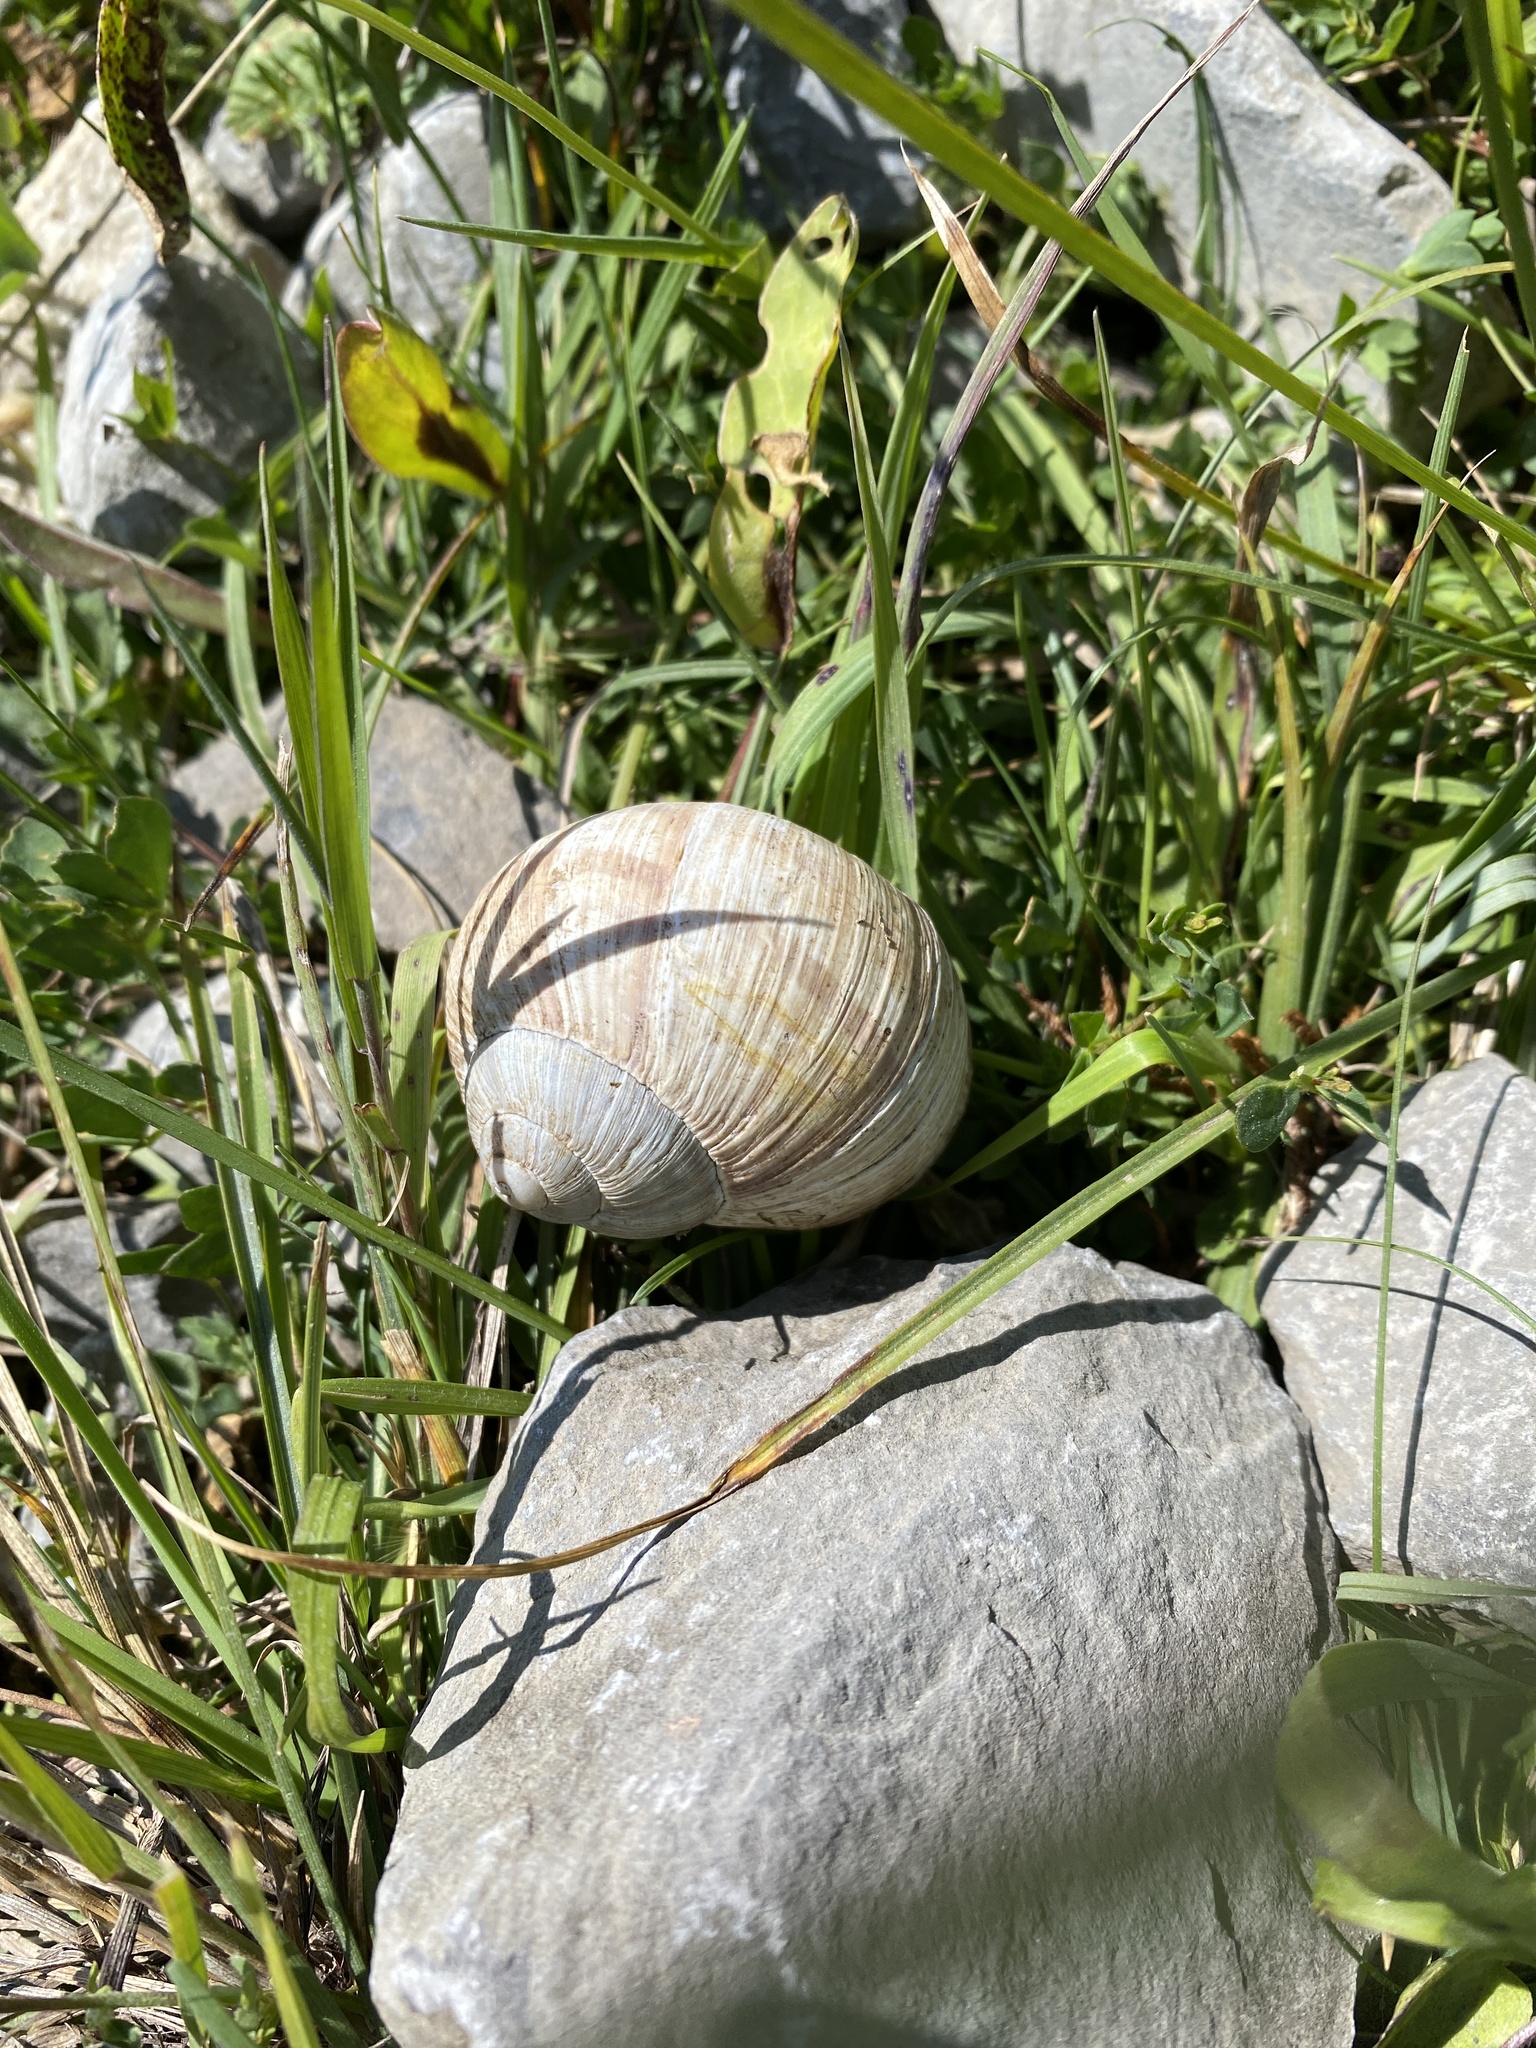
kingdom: Animalia
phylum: Mollusca
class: Gastropoda
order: Stylommatophora
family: Helicidae
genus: Helix
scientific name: Helix pomatia
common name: Roman snail
